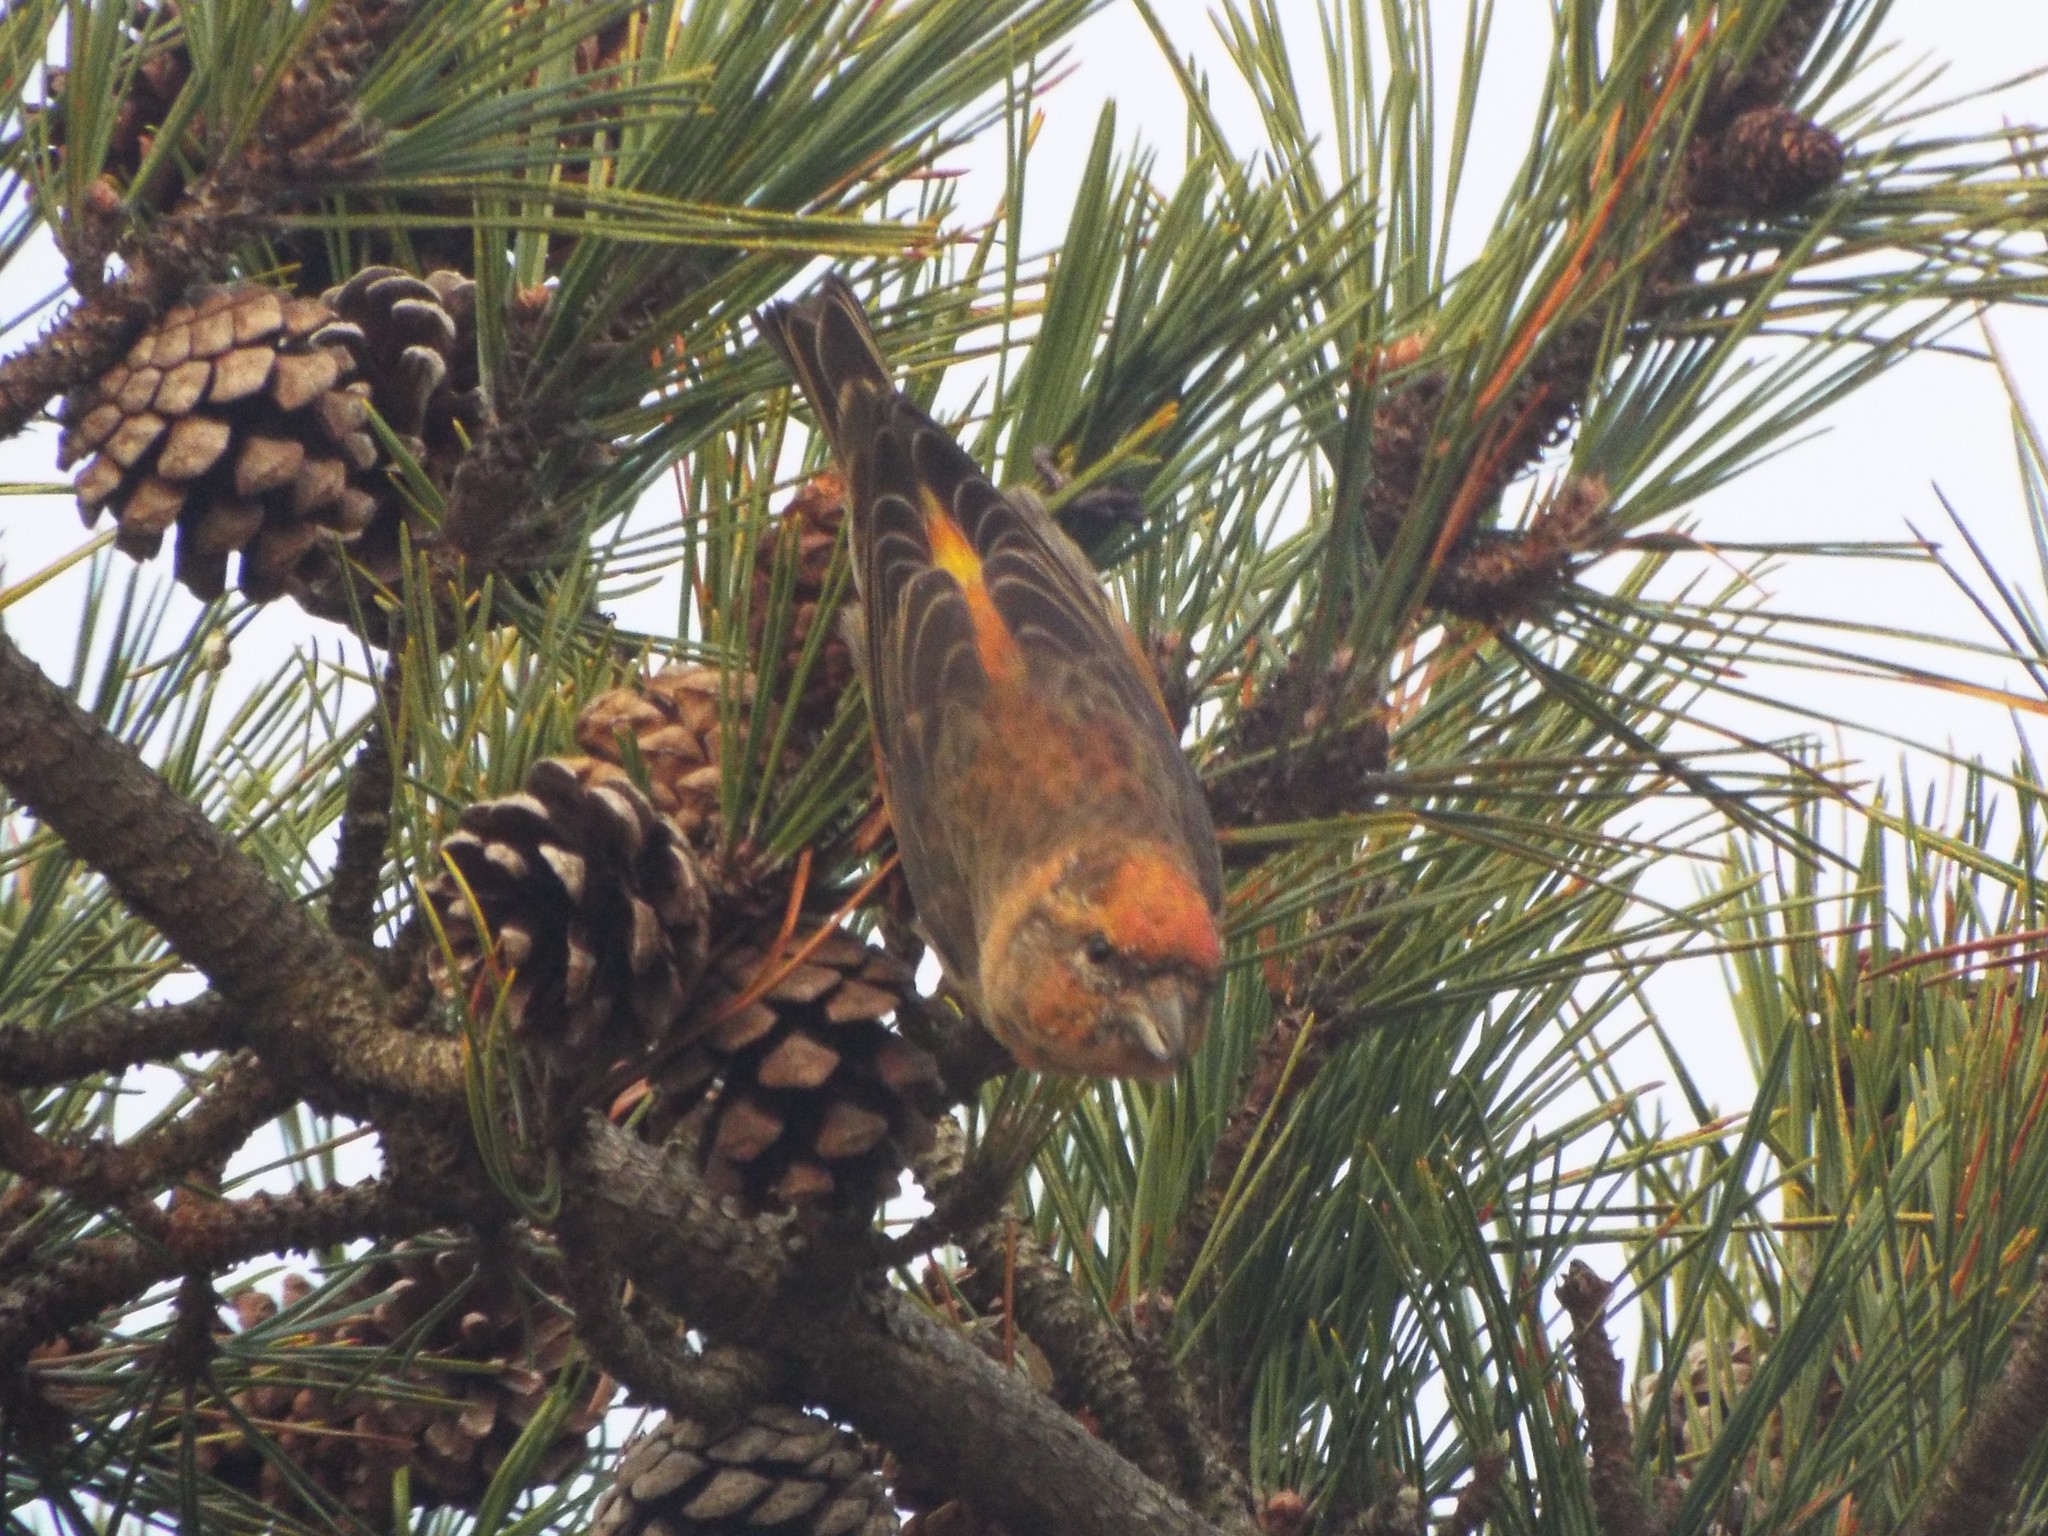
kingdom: Animalia
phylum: Chordata
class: Aves
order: Passeriformes
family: Fringillidae
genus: Loxia
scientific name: Loxia curvirostra
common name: Red crossbill
